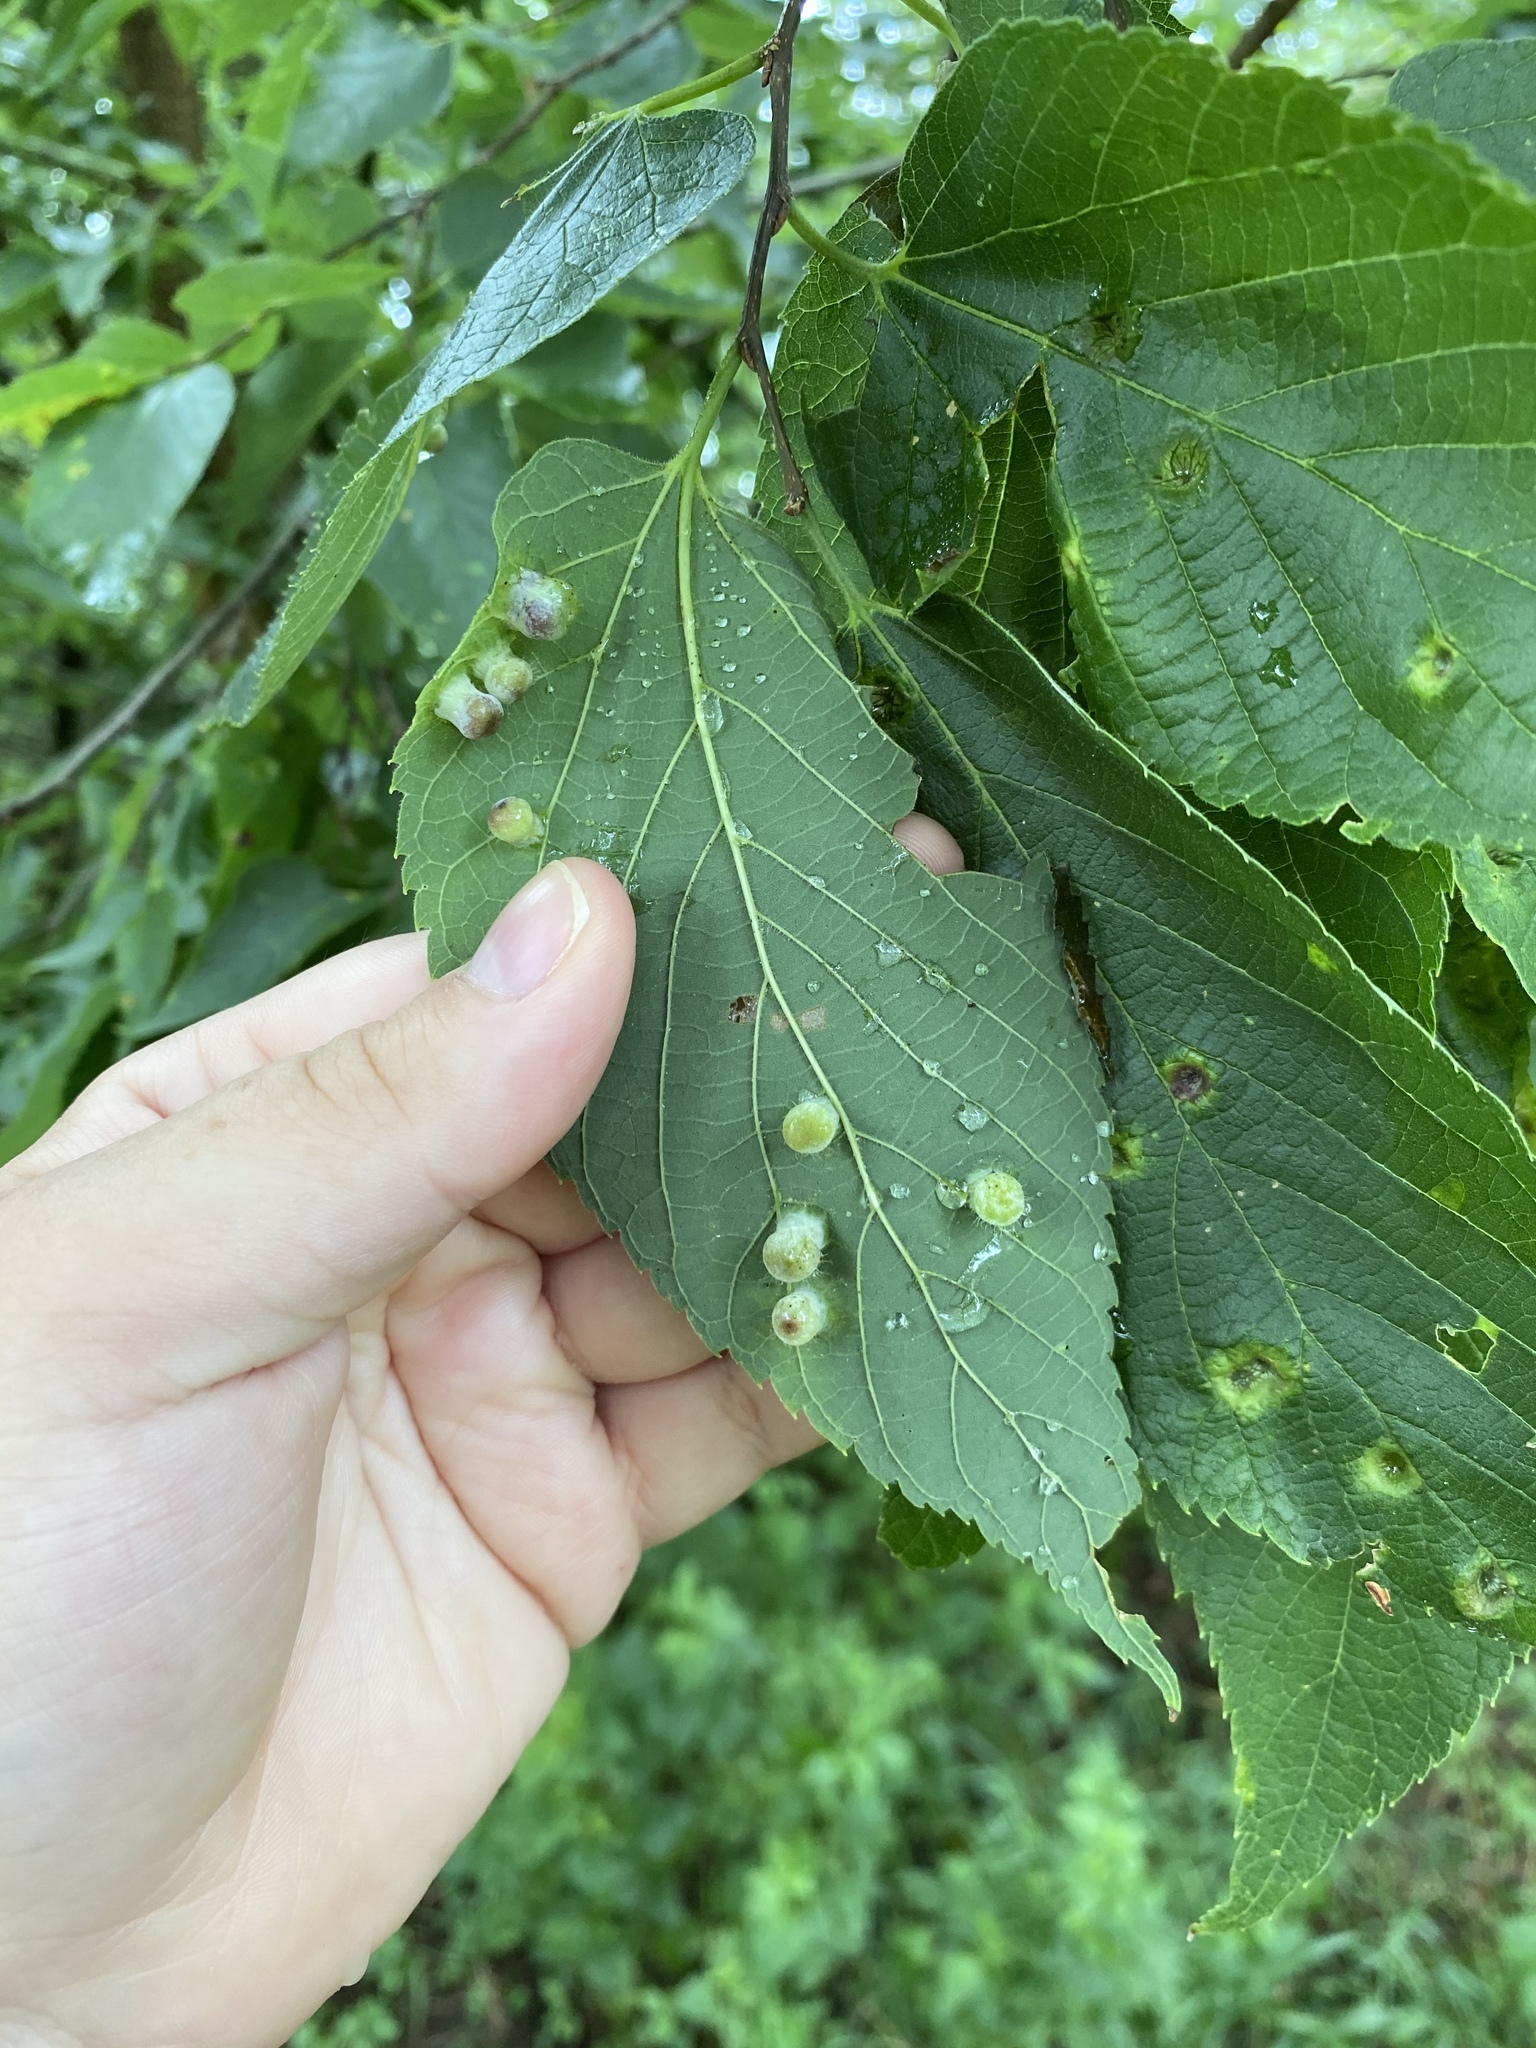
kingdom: Animalia
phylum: Arthropoda
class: Insecta
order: Hemiptera
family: Aphalaridae
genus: Pachypsylla
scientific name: Pachypsylla celtidismamma
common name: Hackberry nipplegall psyllid
